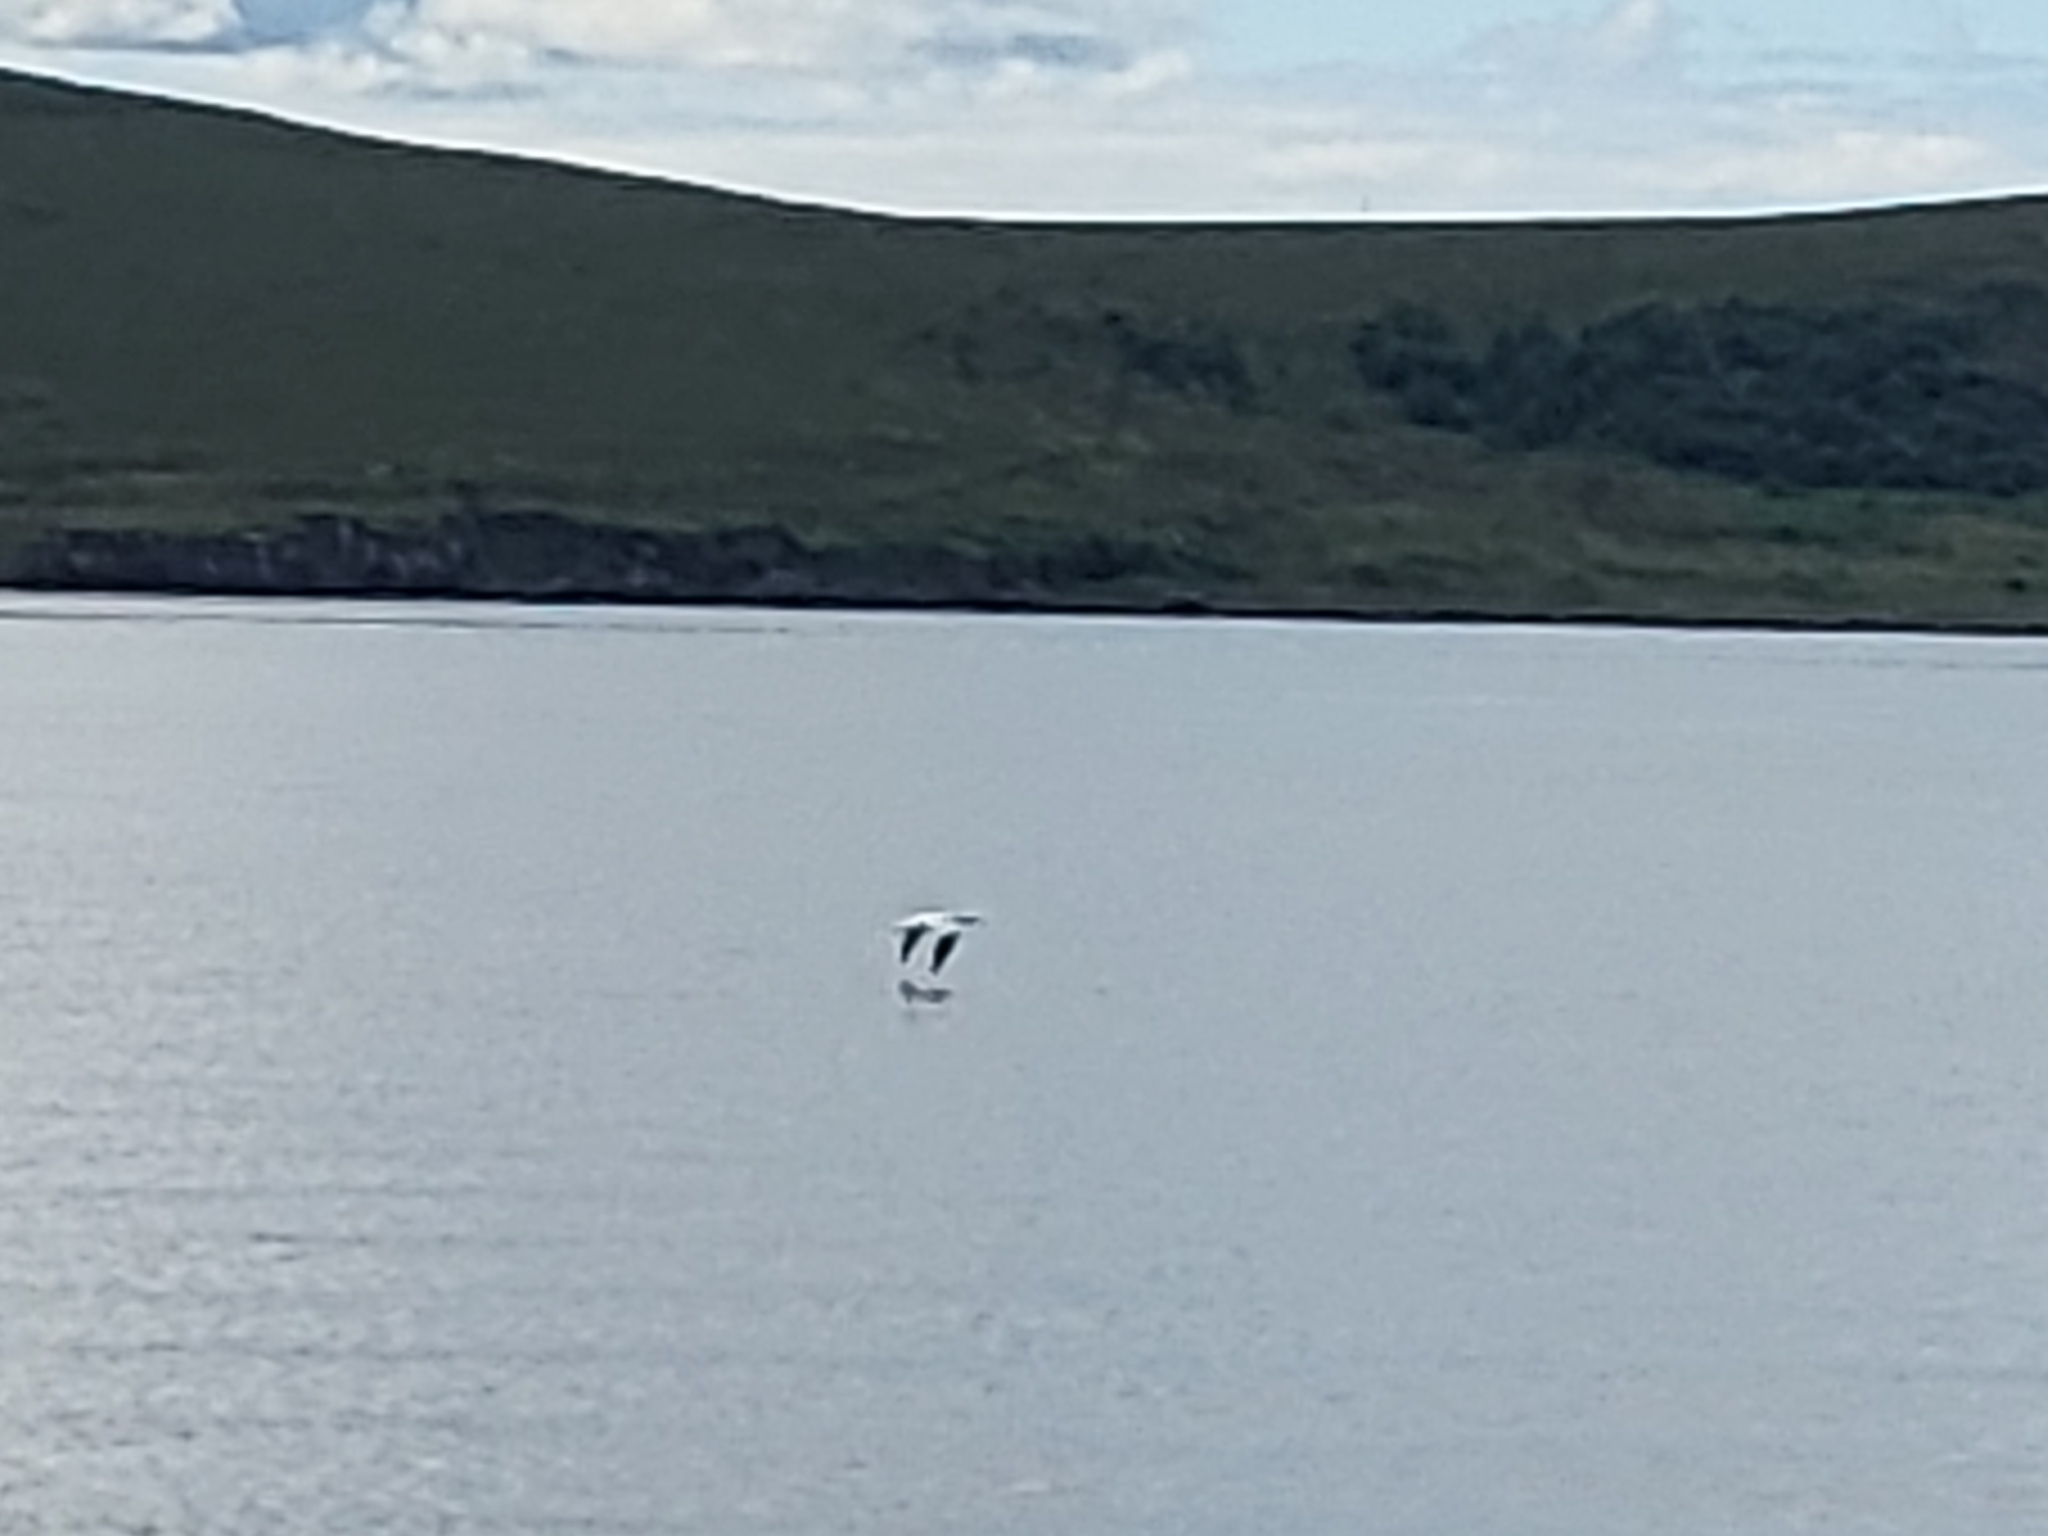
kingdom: Animalia
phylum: Chordata
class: Aves
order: Suliformes
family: Sulidae
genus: Morus
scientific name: Morus bassanus
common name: Northern gannet
